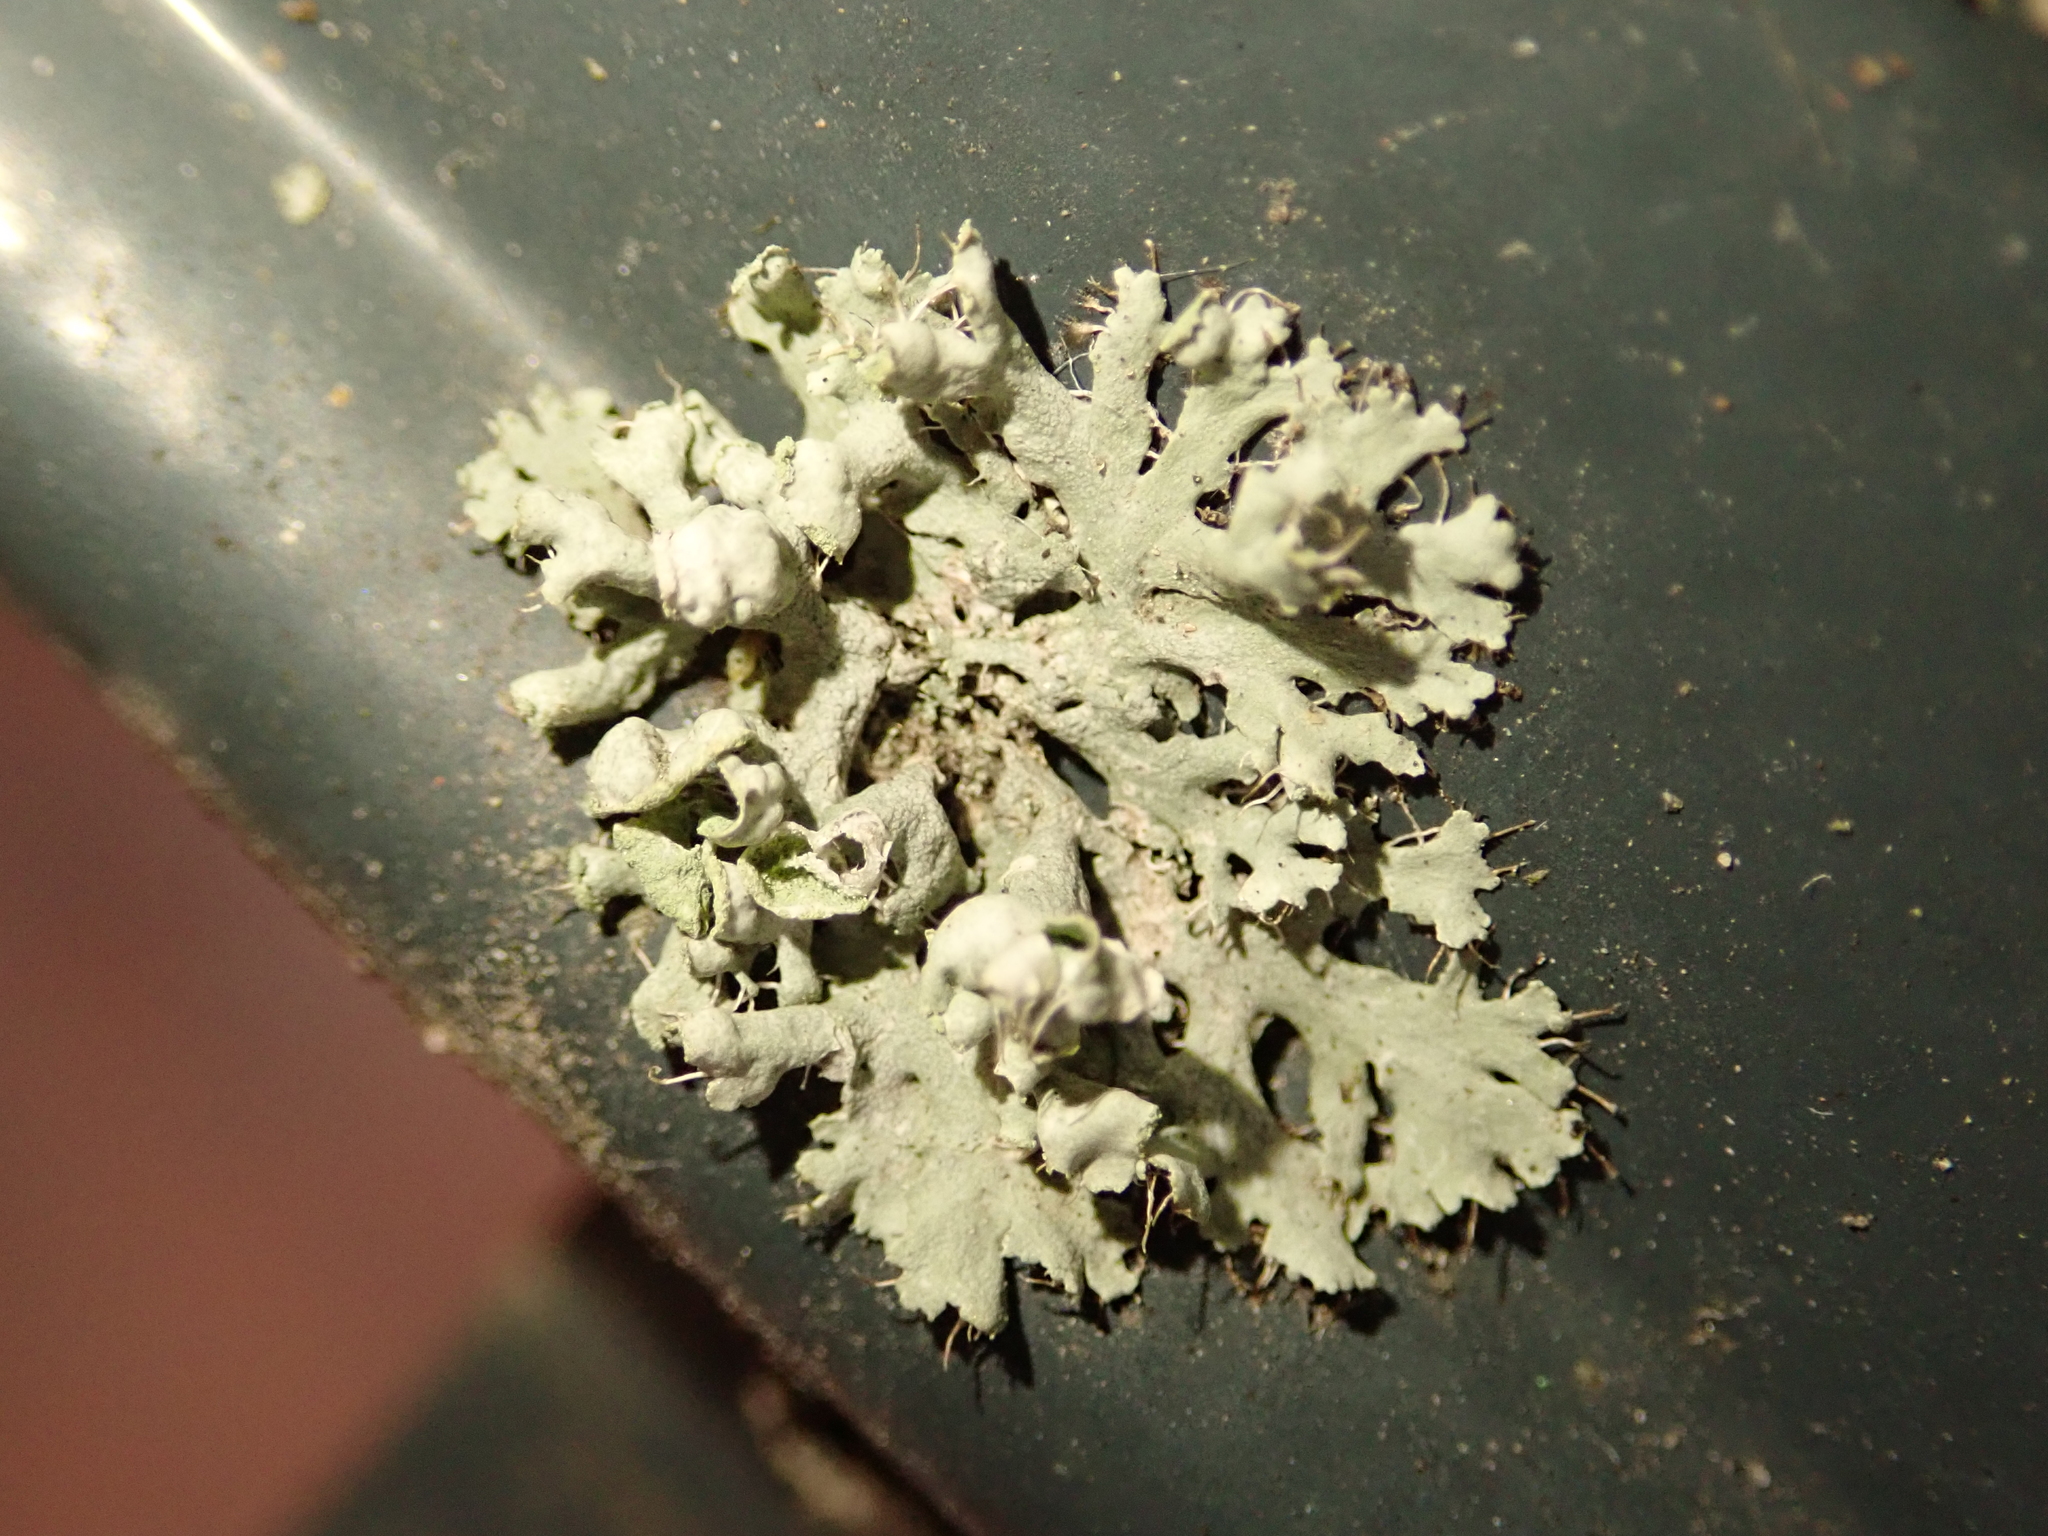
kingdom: Fungi
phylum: Ascomycota
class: Lecanoromycetes
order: Caliciales
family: Physciaceae
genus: Physcia
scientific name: Physcia adscendens
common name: Hooded rosette lichen
